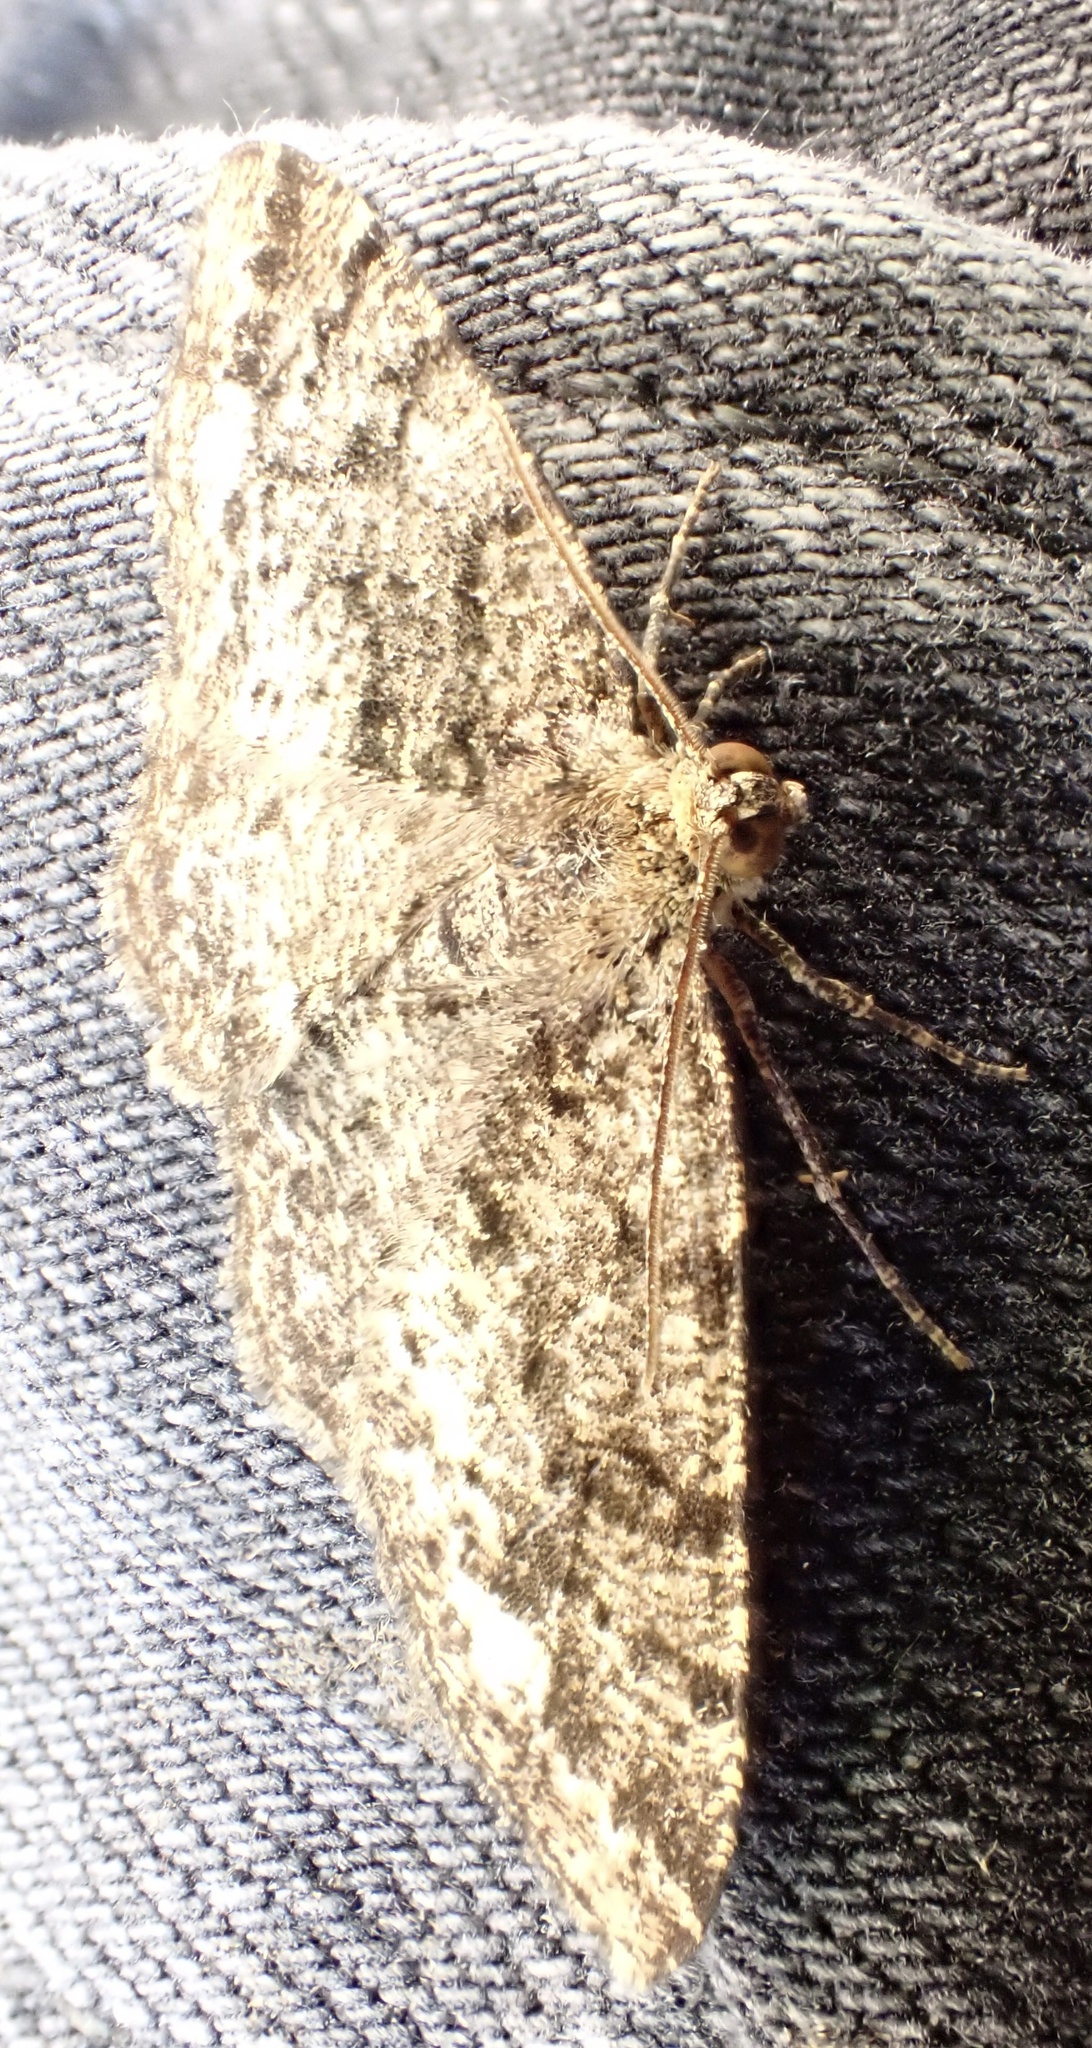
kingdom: Animalia
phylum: Arthropoda
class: Insecta
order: Lepidoptera
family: Geometridae
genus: Parectropis
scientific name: Parectropis similaria
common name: Brindled white-spot
